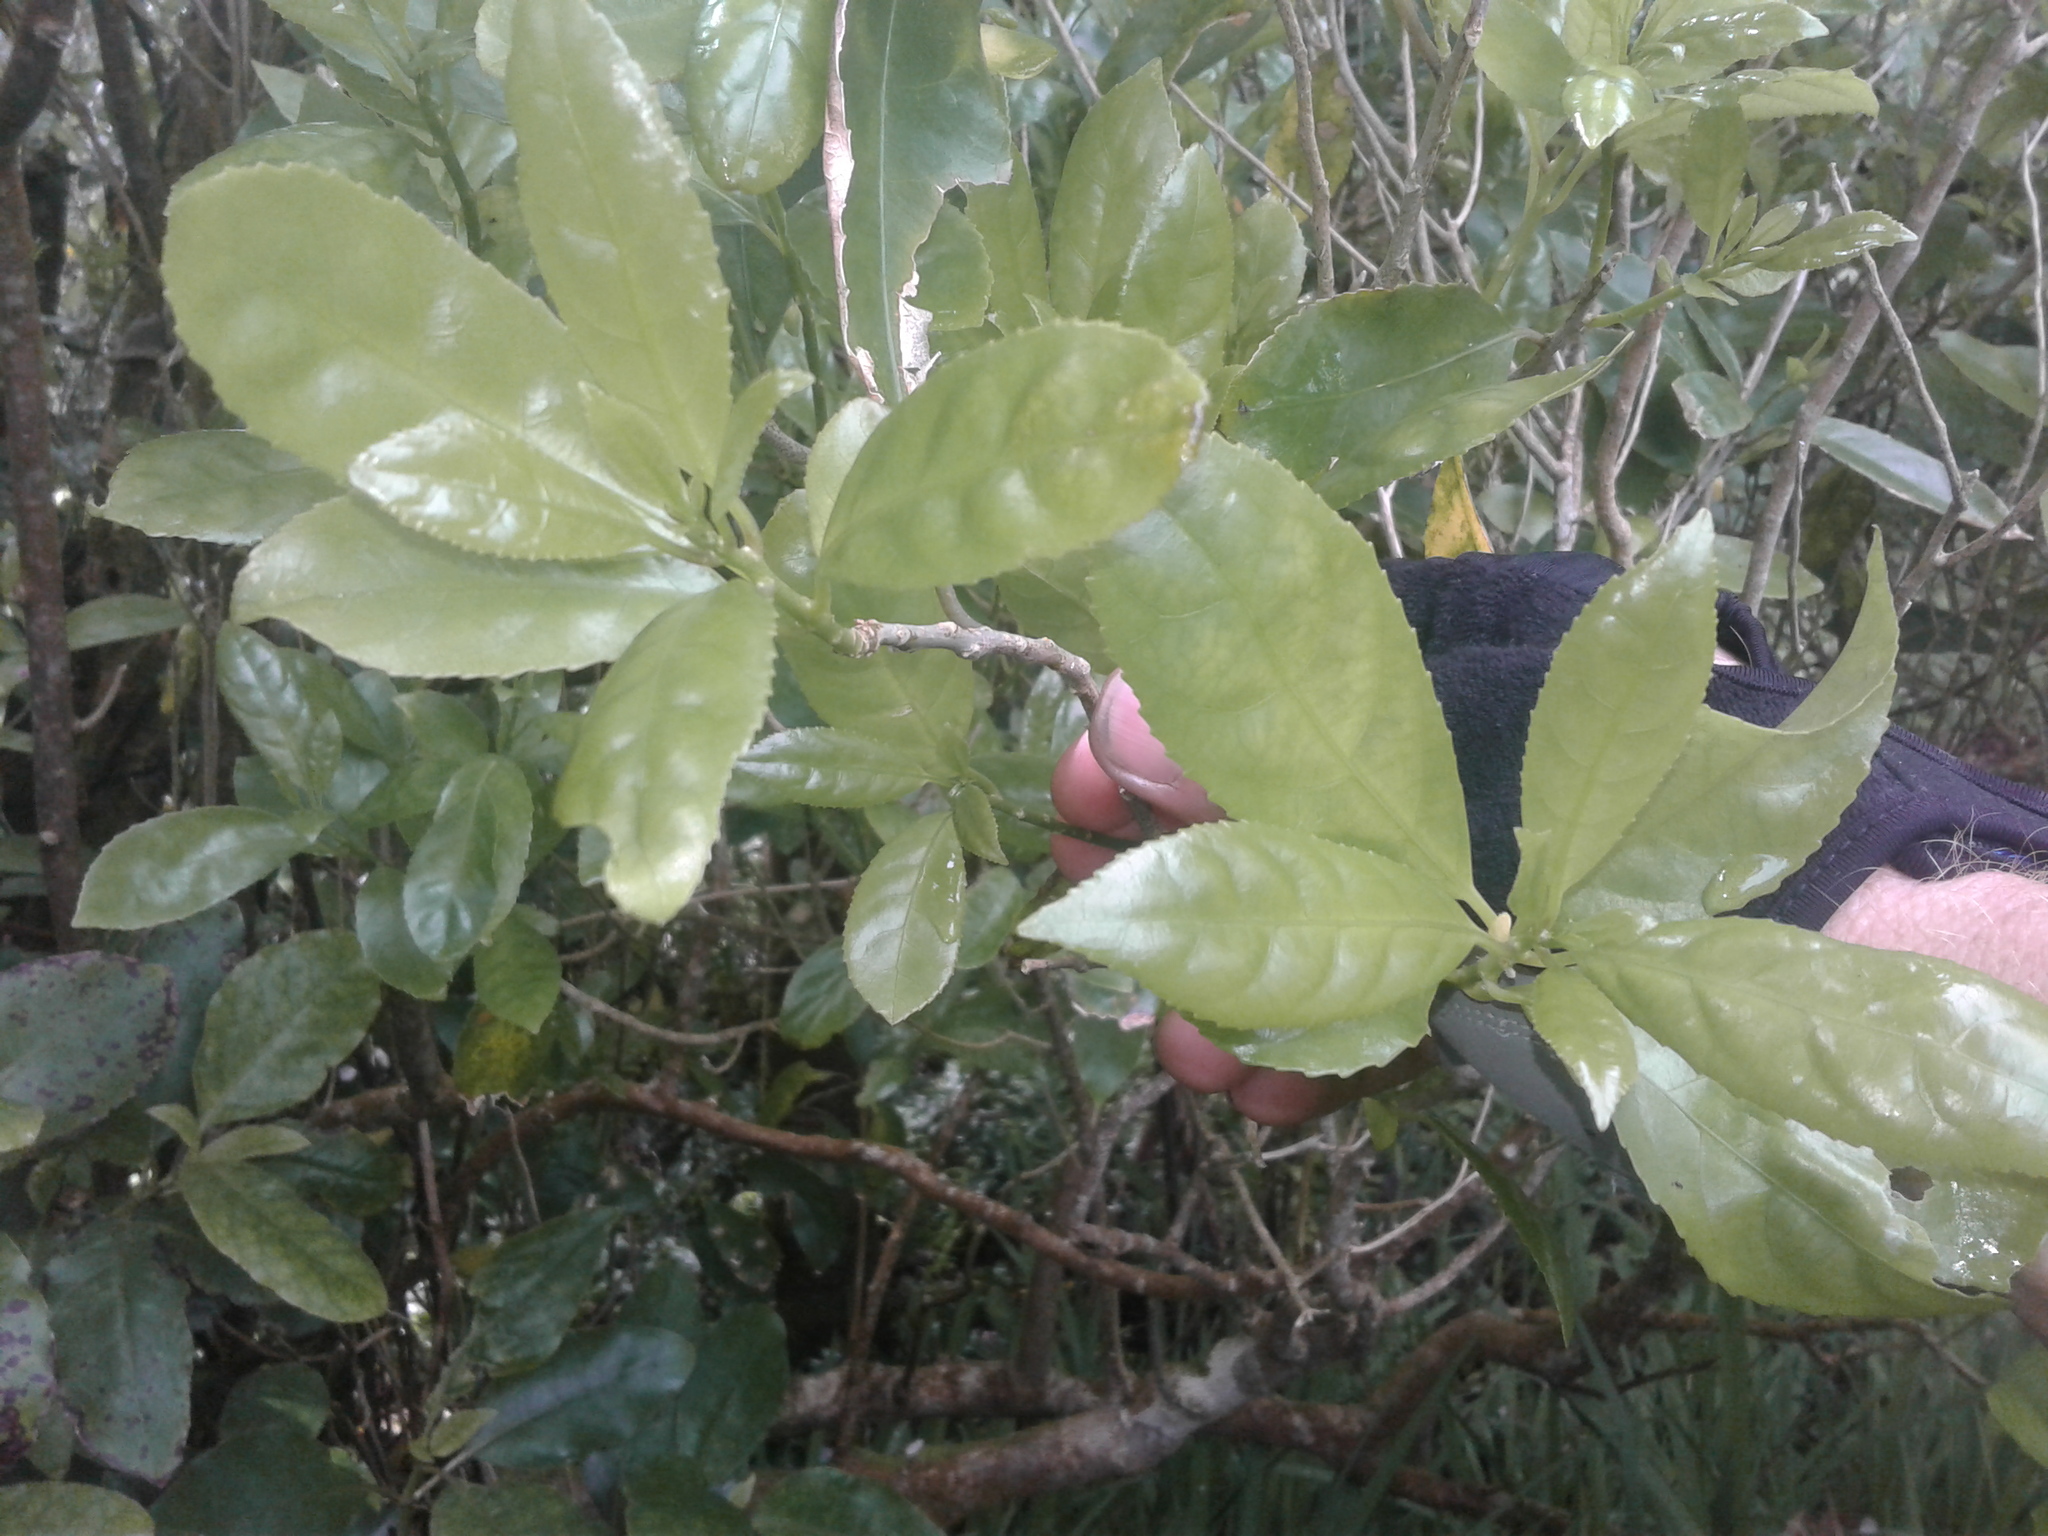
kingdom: Plantae
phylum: Tracheophyta
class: Magnoliopsida
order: Malpighiales
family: Violaceae
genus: Melicytus
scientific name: Melicytus ramiflorus
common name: Mahoe
